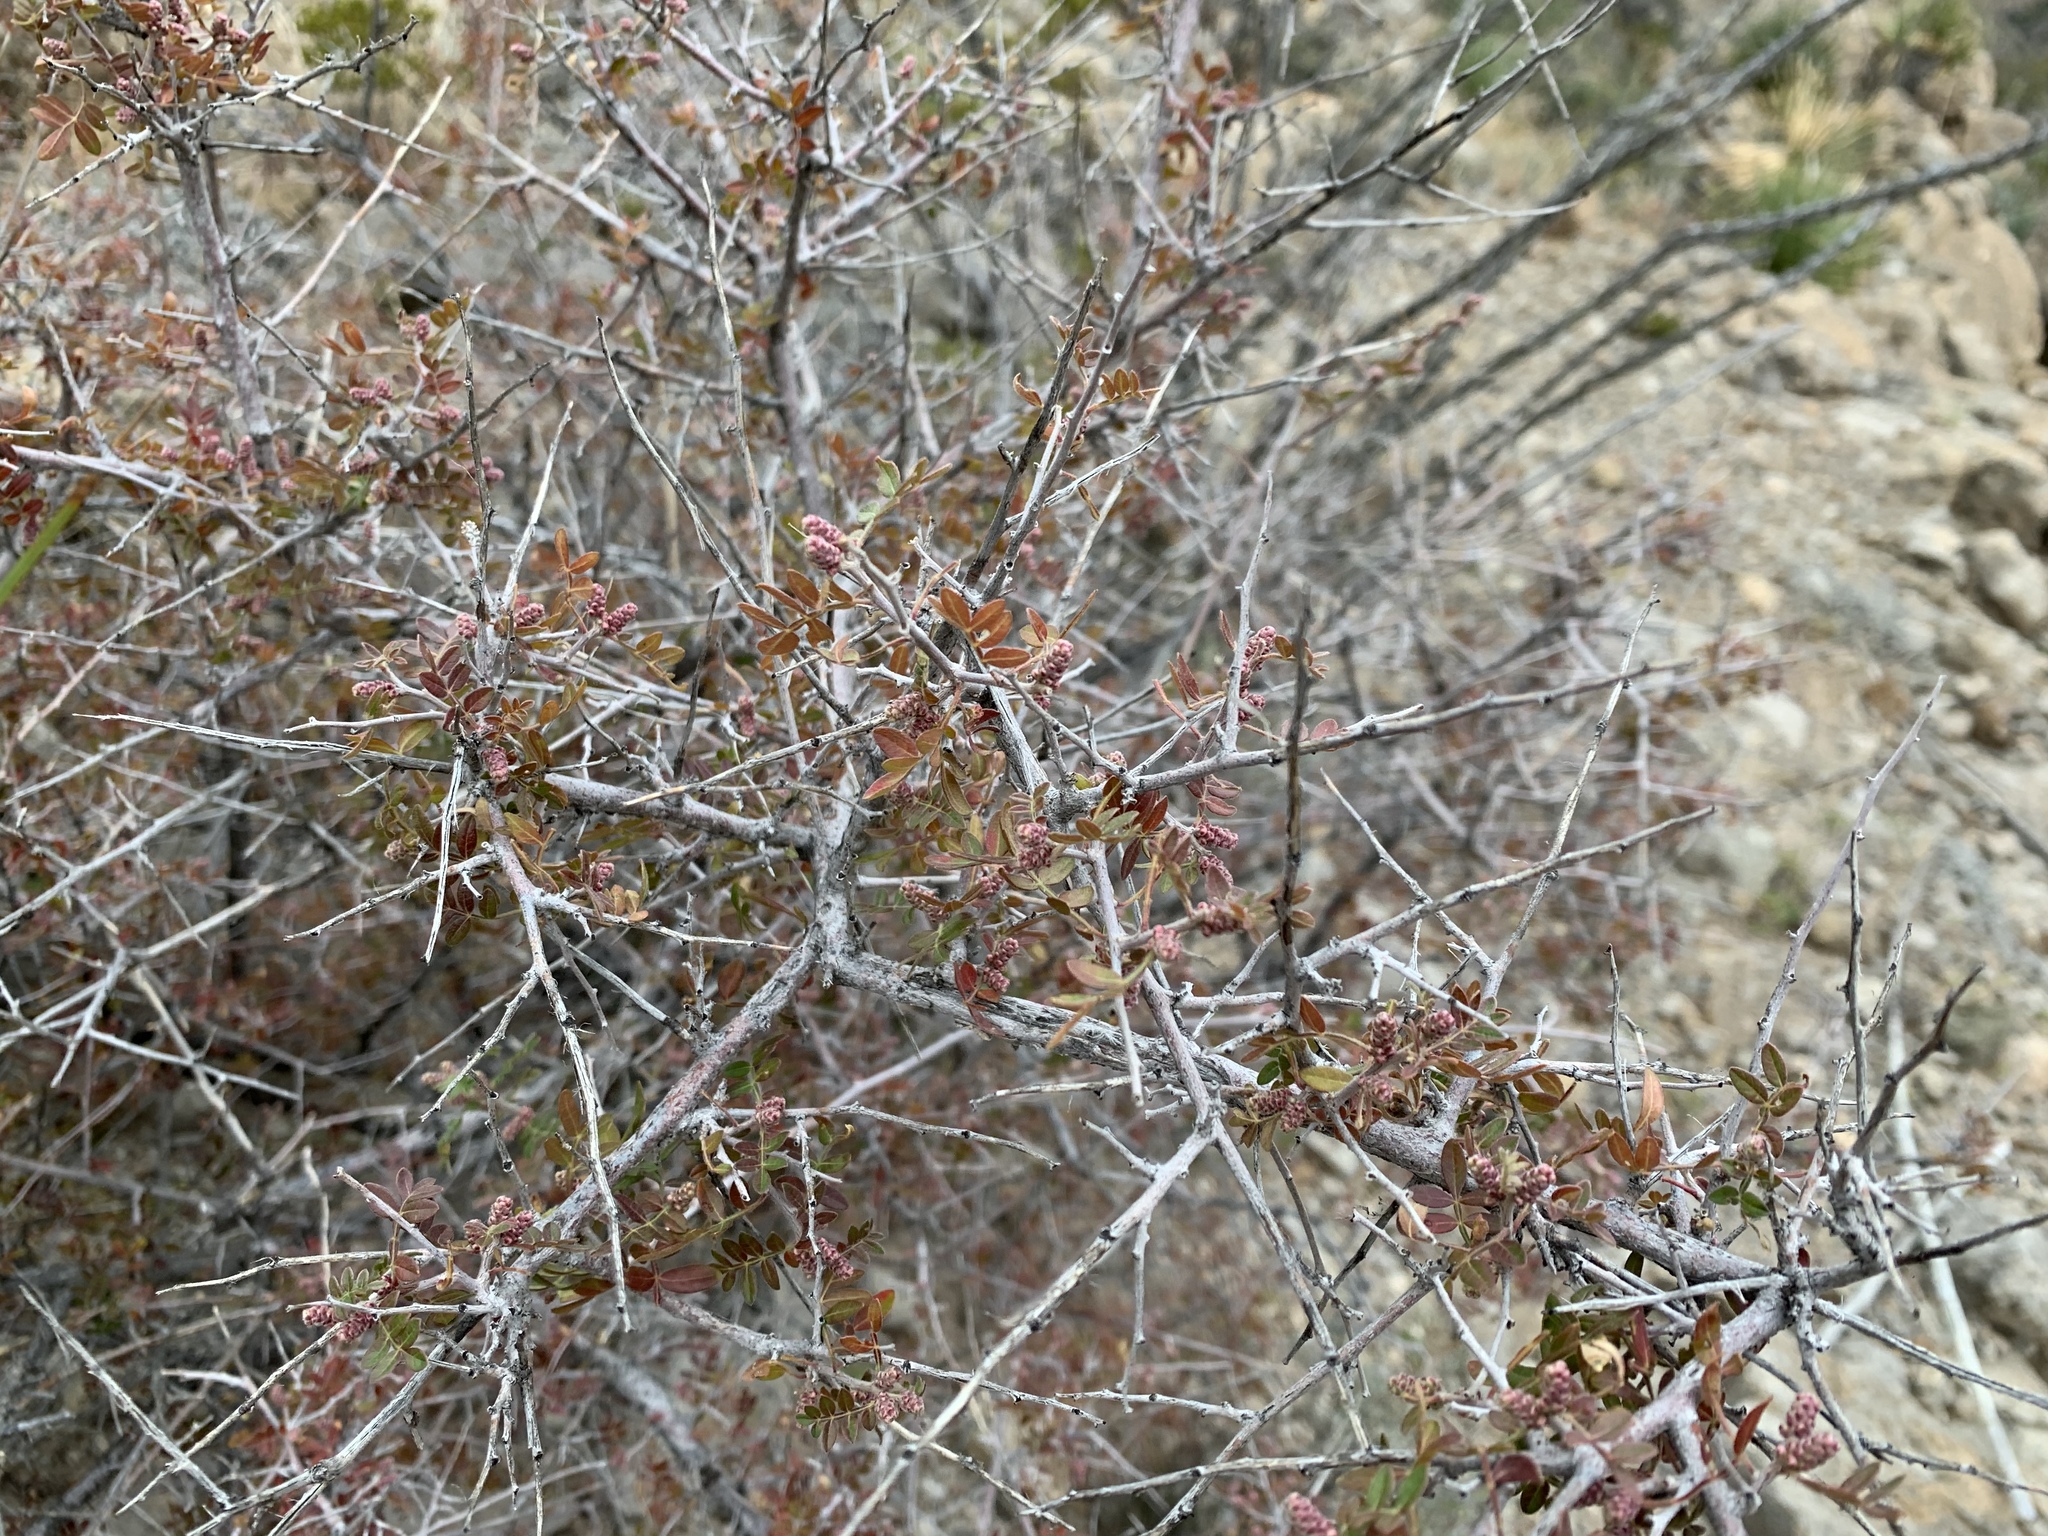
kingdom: Plantae
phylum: Tracheophyta
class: Magnoliopsida
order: Sapindales
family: Anacardiaceae
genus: Rhus
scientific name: Rhus microphylla
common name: Desert sumac
